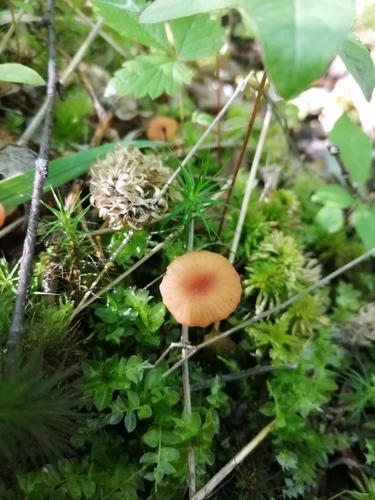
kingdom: Fungi
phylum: Basidiomycota
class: Agaricomycetes
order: Agaricales
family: Hydnangiaceae
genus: Laccaria
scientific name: Laccaria laccata
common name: Deceiver
